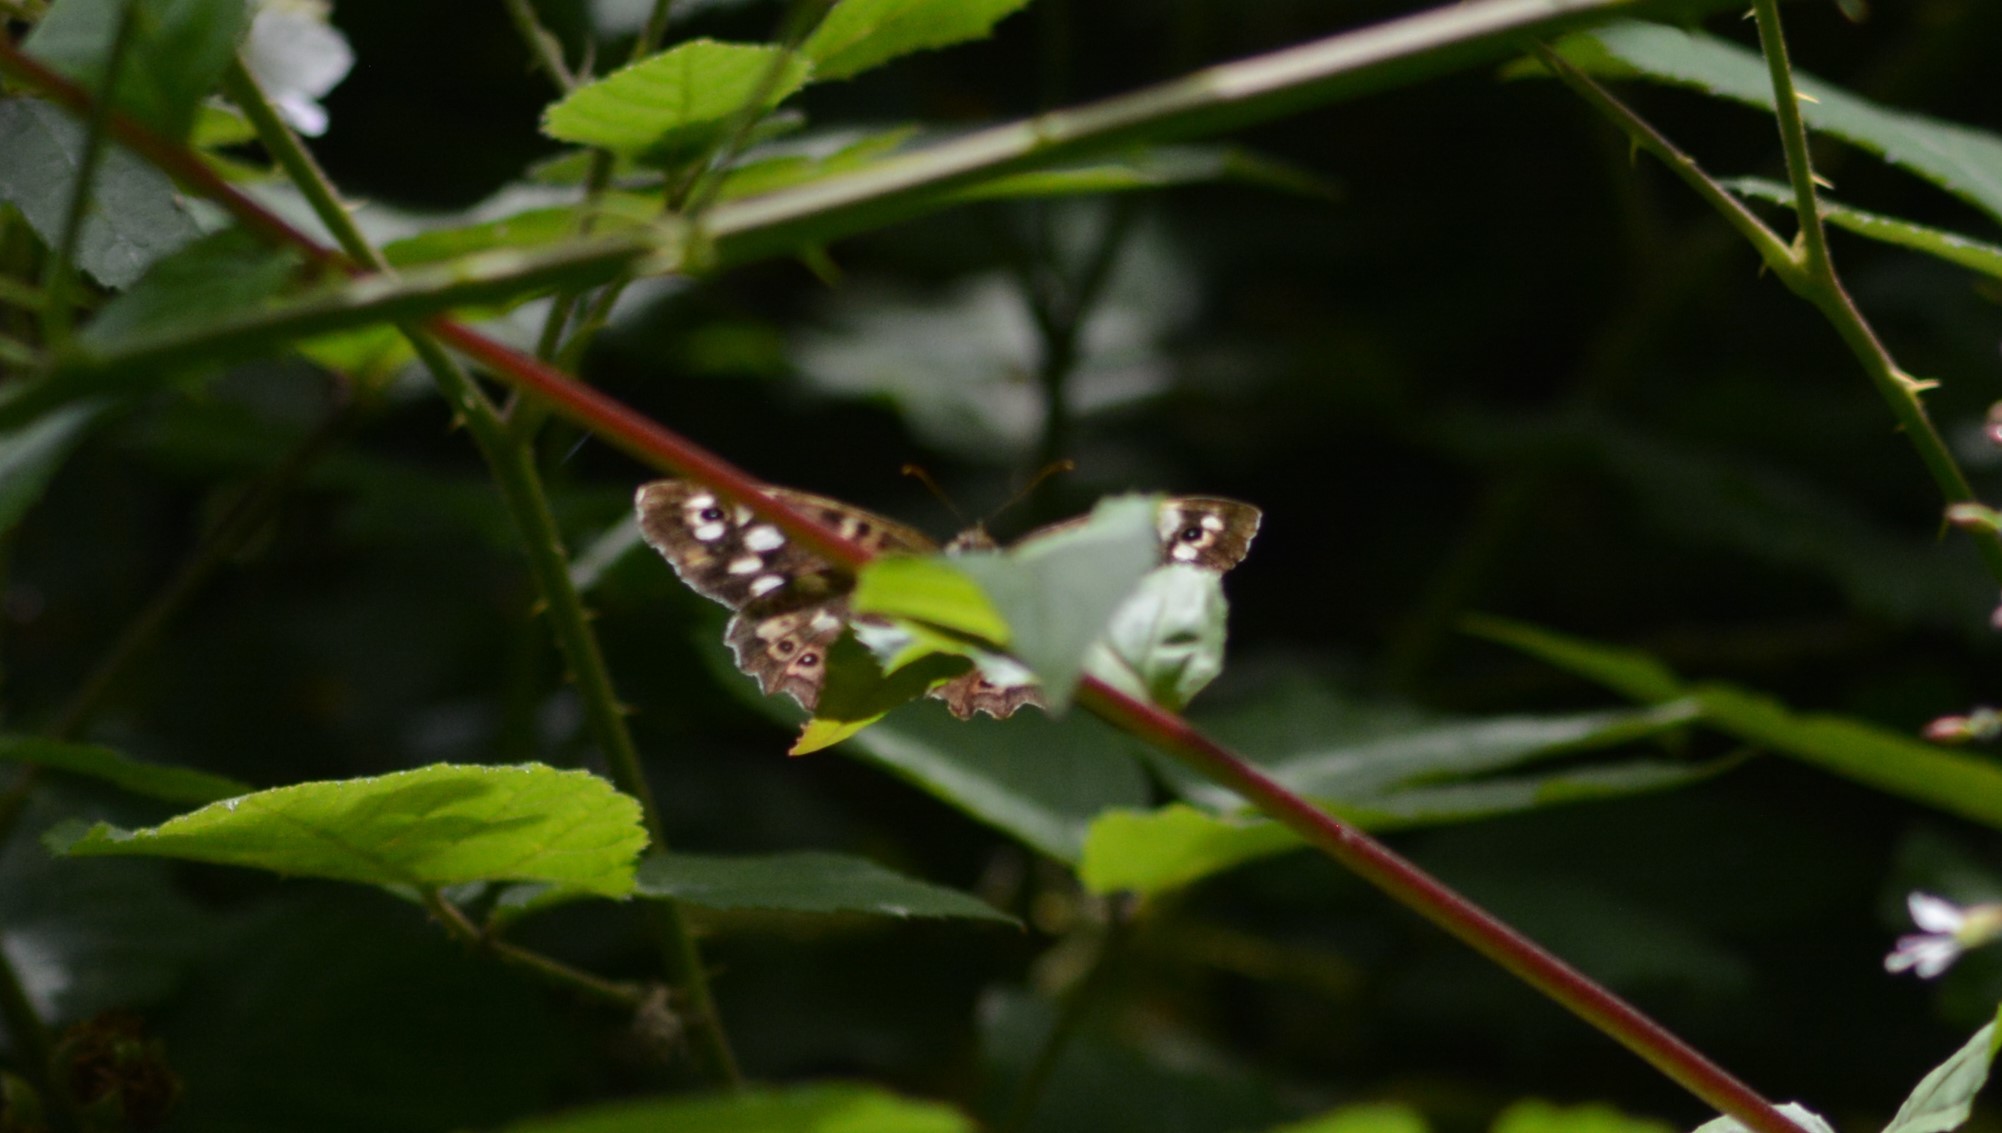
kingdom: Animalia
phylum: Arthropoda
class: Insecta
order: Lepidoptera
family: Nymphalidae
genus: Pararge
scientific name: Pararge aegeria
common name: Speckled wood
